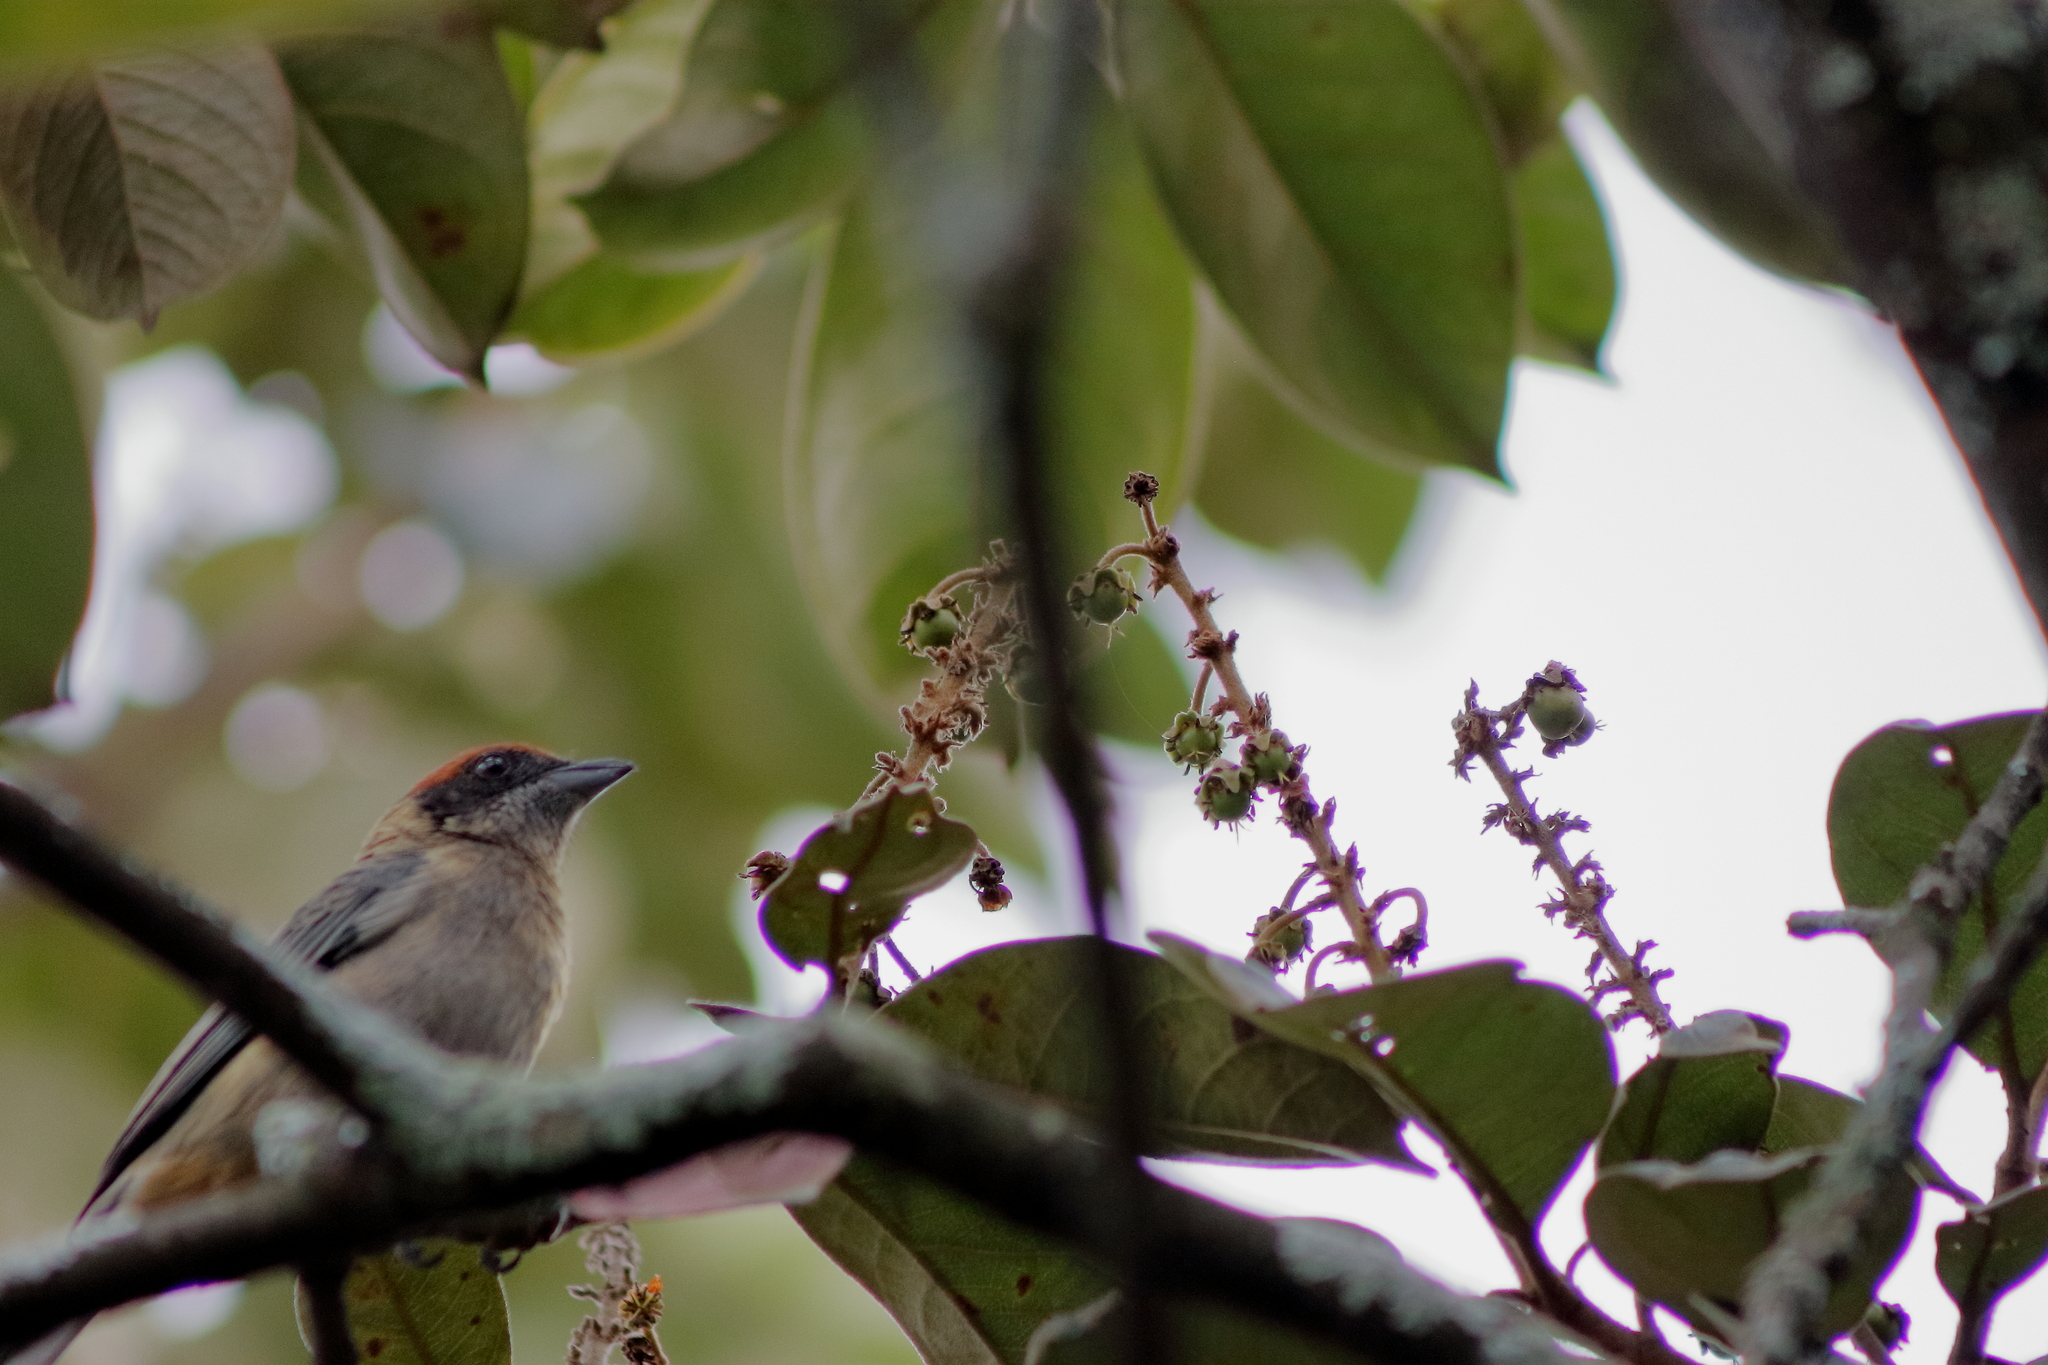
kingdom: Animalia
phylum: Chordata
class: Aves
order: Passeriformes
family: Thraupidae
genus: Stilpnia
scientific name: Stilpnia vitriolina
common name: Scrub tanager
